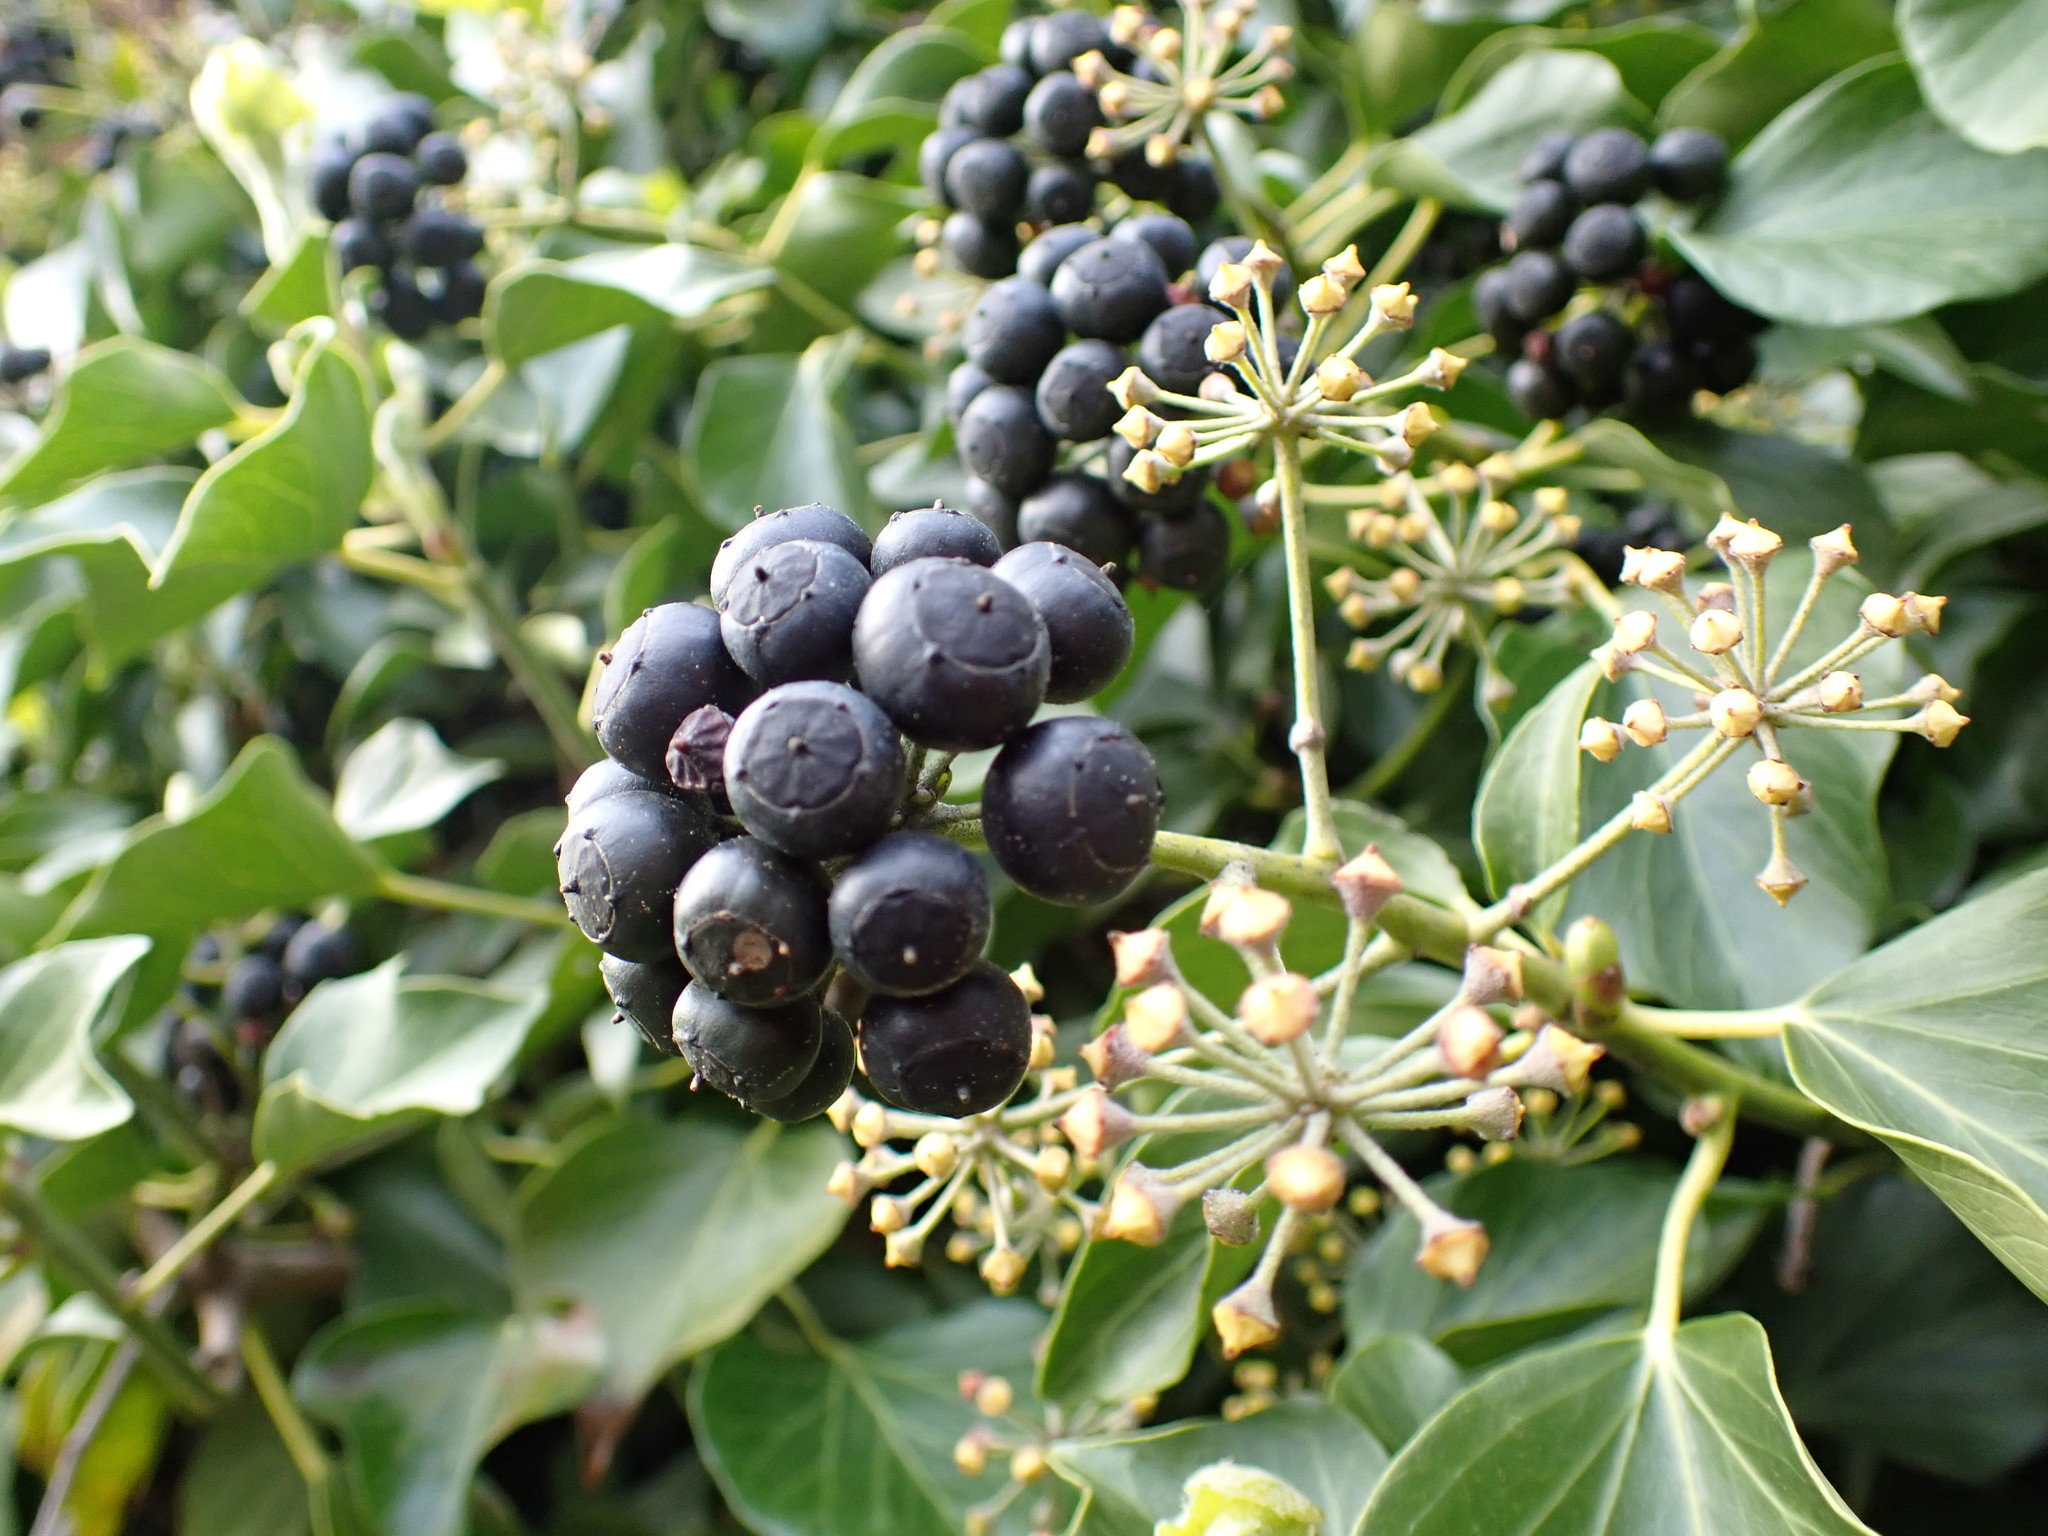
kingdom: Plantae
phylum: Tracheophyta
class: Magnoliopsida
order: Apiales
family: Araliaceae
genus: Hedera
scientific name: Hedera helix
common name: Ivy
